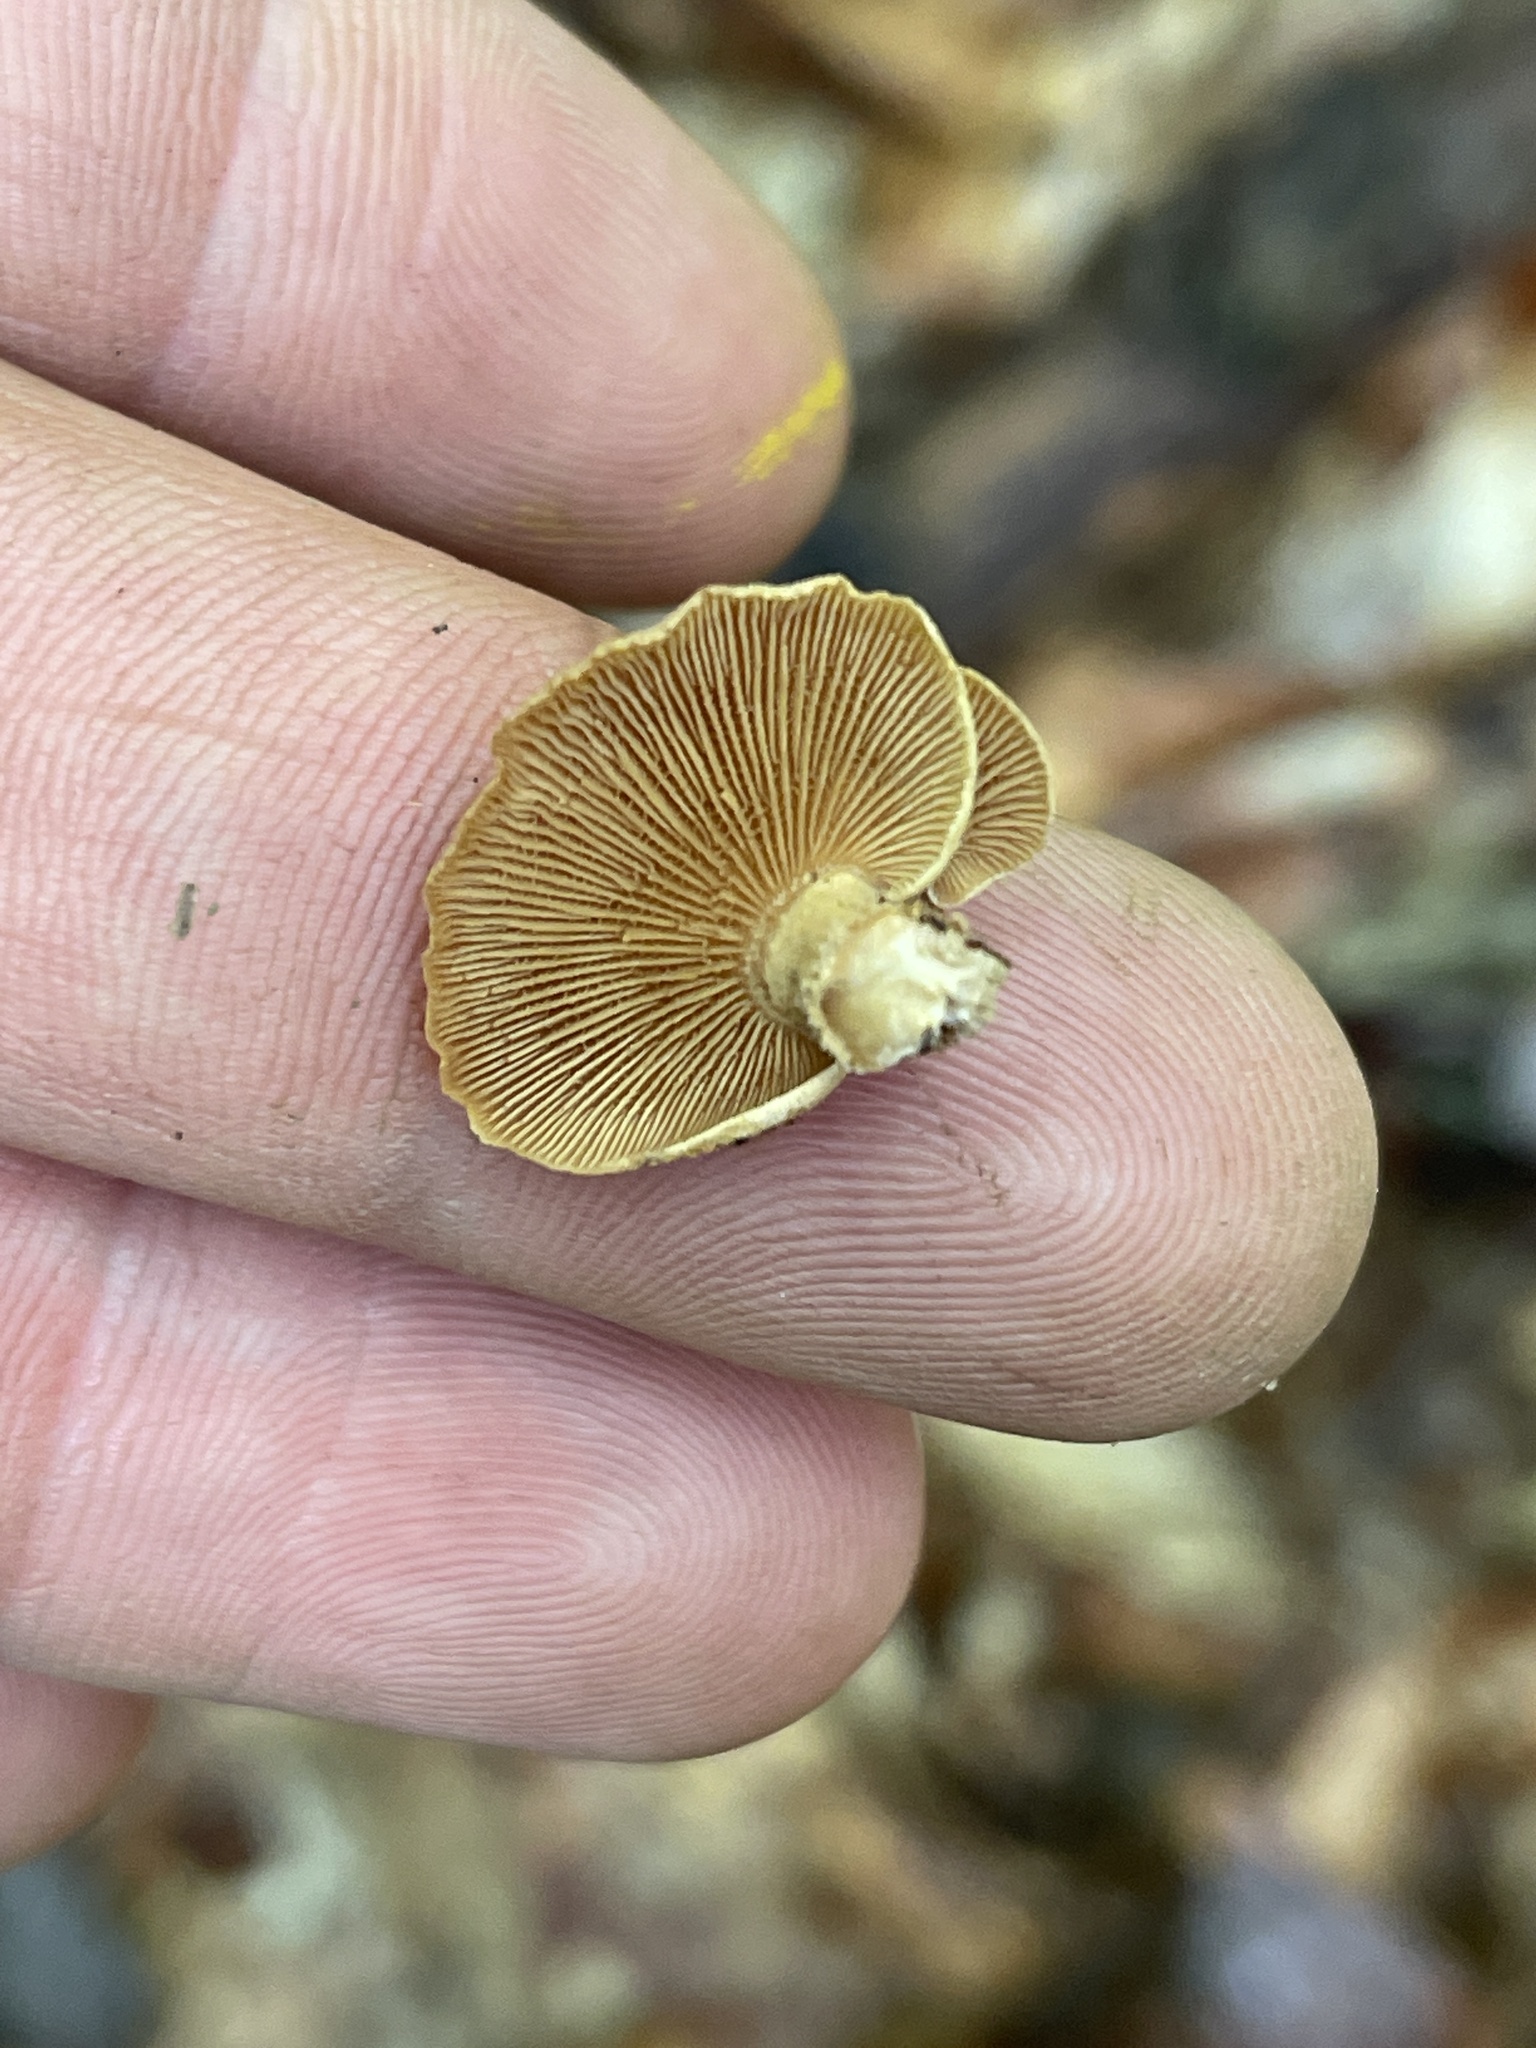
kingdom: Fungi
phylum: Basidiomycota
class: Agaricomycetes
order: Agaricales
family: Mycenaceae
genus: Panellus
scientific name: Panellus stipticus
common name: Bitter oysterling
